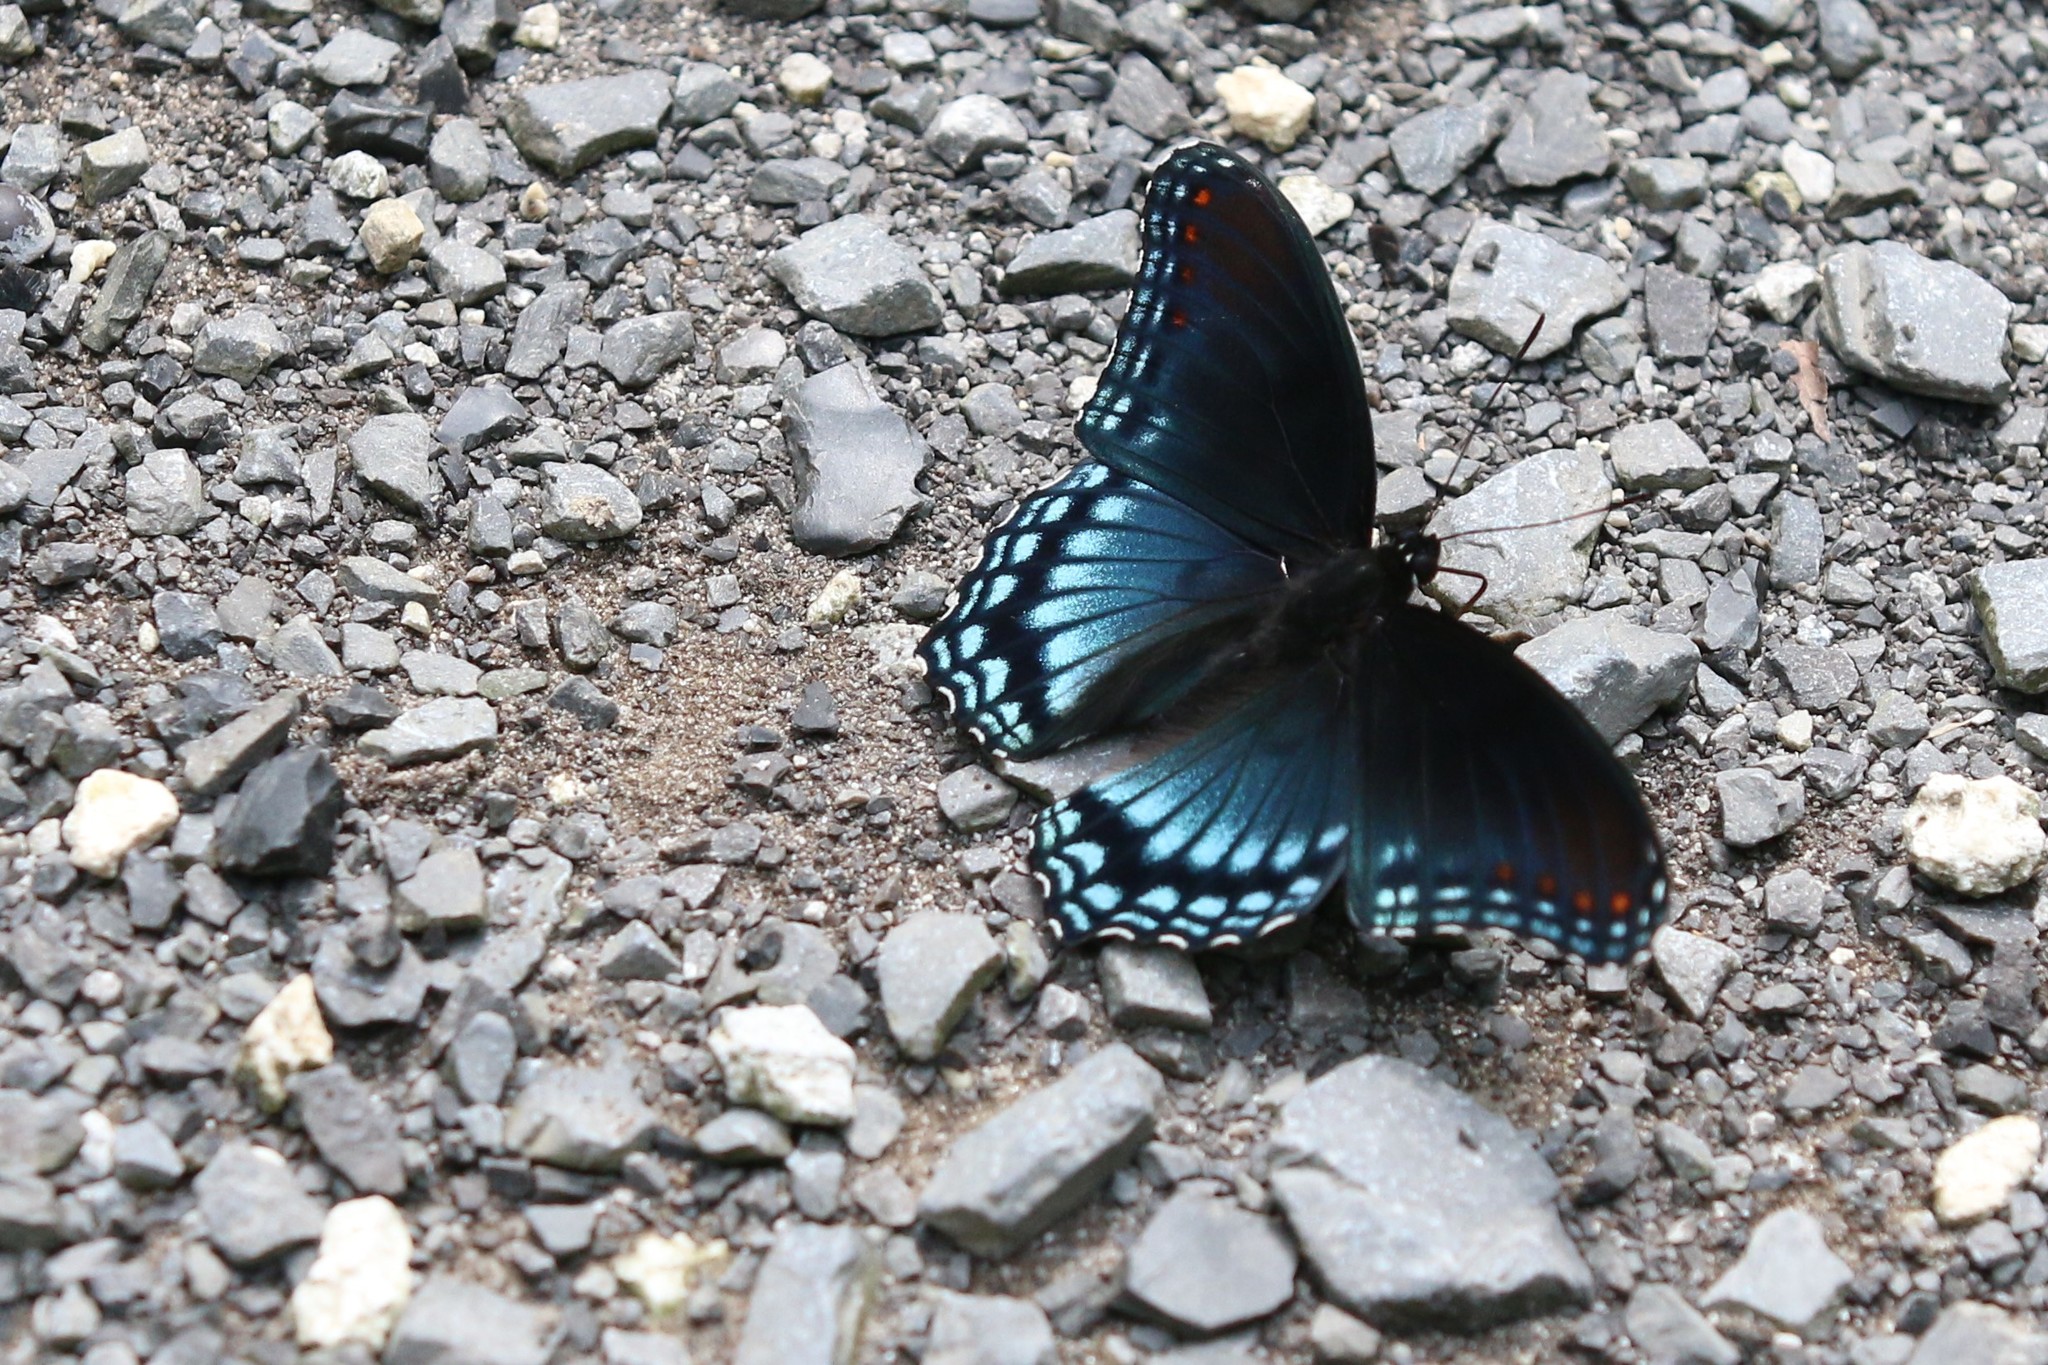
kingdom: Animalia
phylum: Arthropoda
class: Insecta
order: Lepidoptera
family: Nymphalidae
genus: Limenitis
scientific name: Limenitis arthemis
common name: Red-spotted admiral
